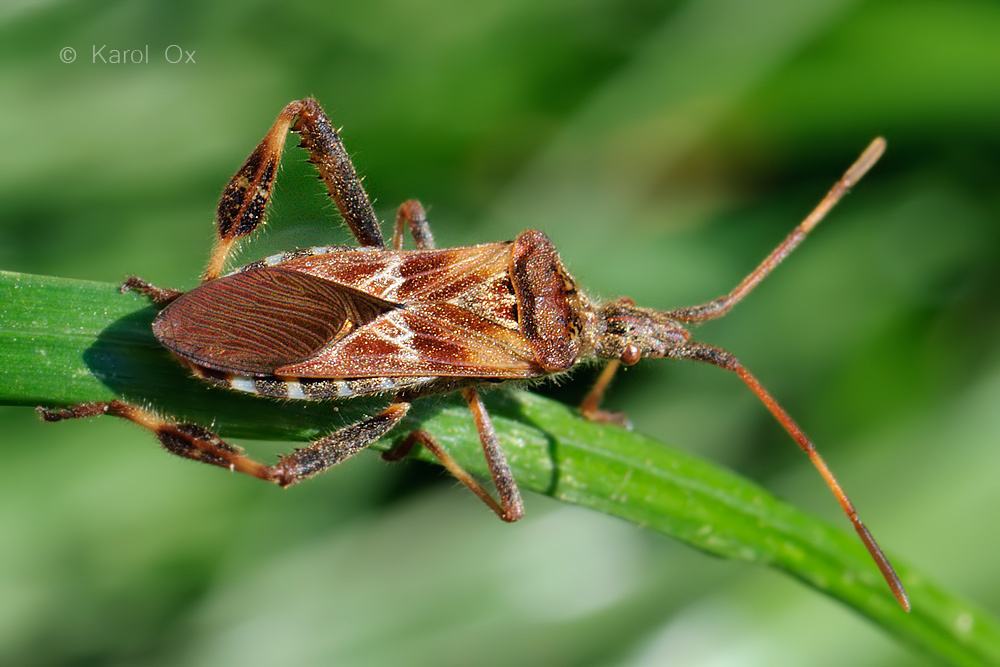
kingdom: Animalia
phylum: Arthropoda
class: Insecta
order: Hemiptera
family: Coreidae
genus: Leptoglossus
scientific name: Leptoglossus occidentalis
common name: Western conifer-seed bug
